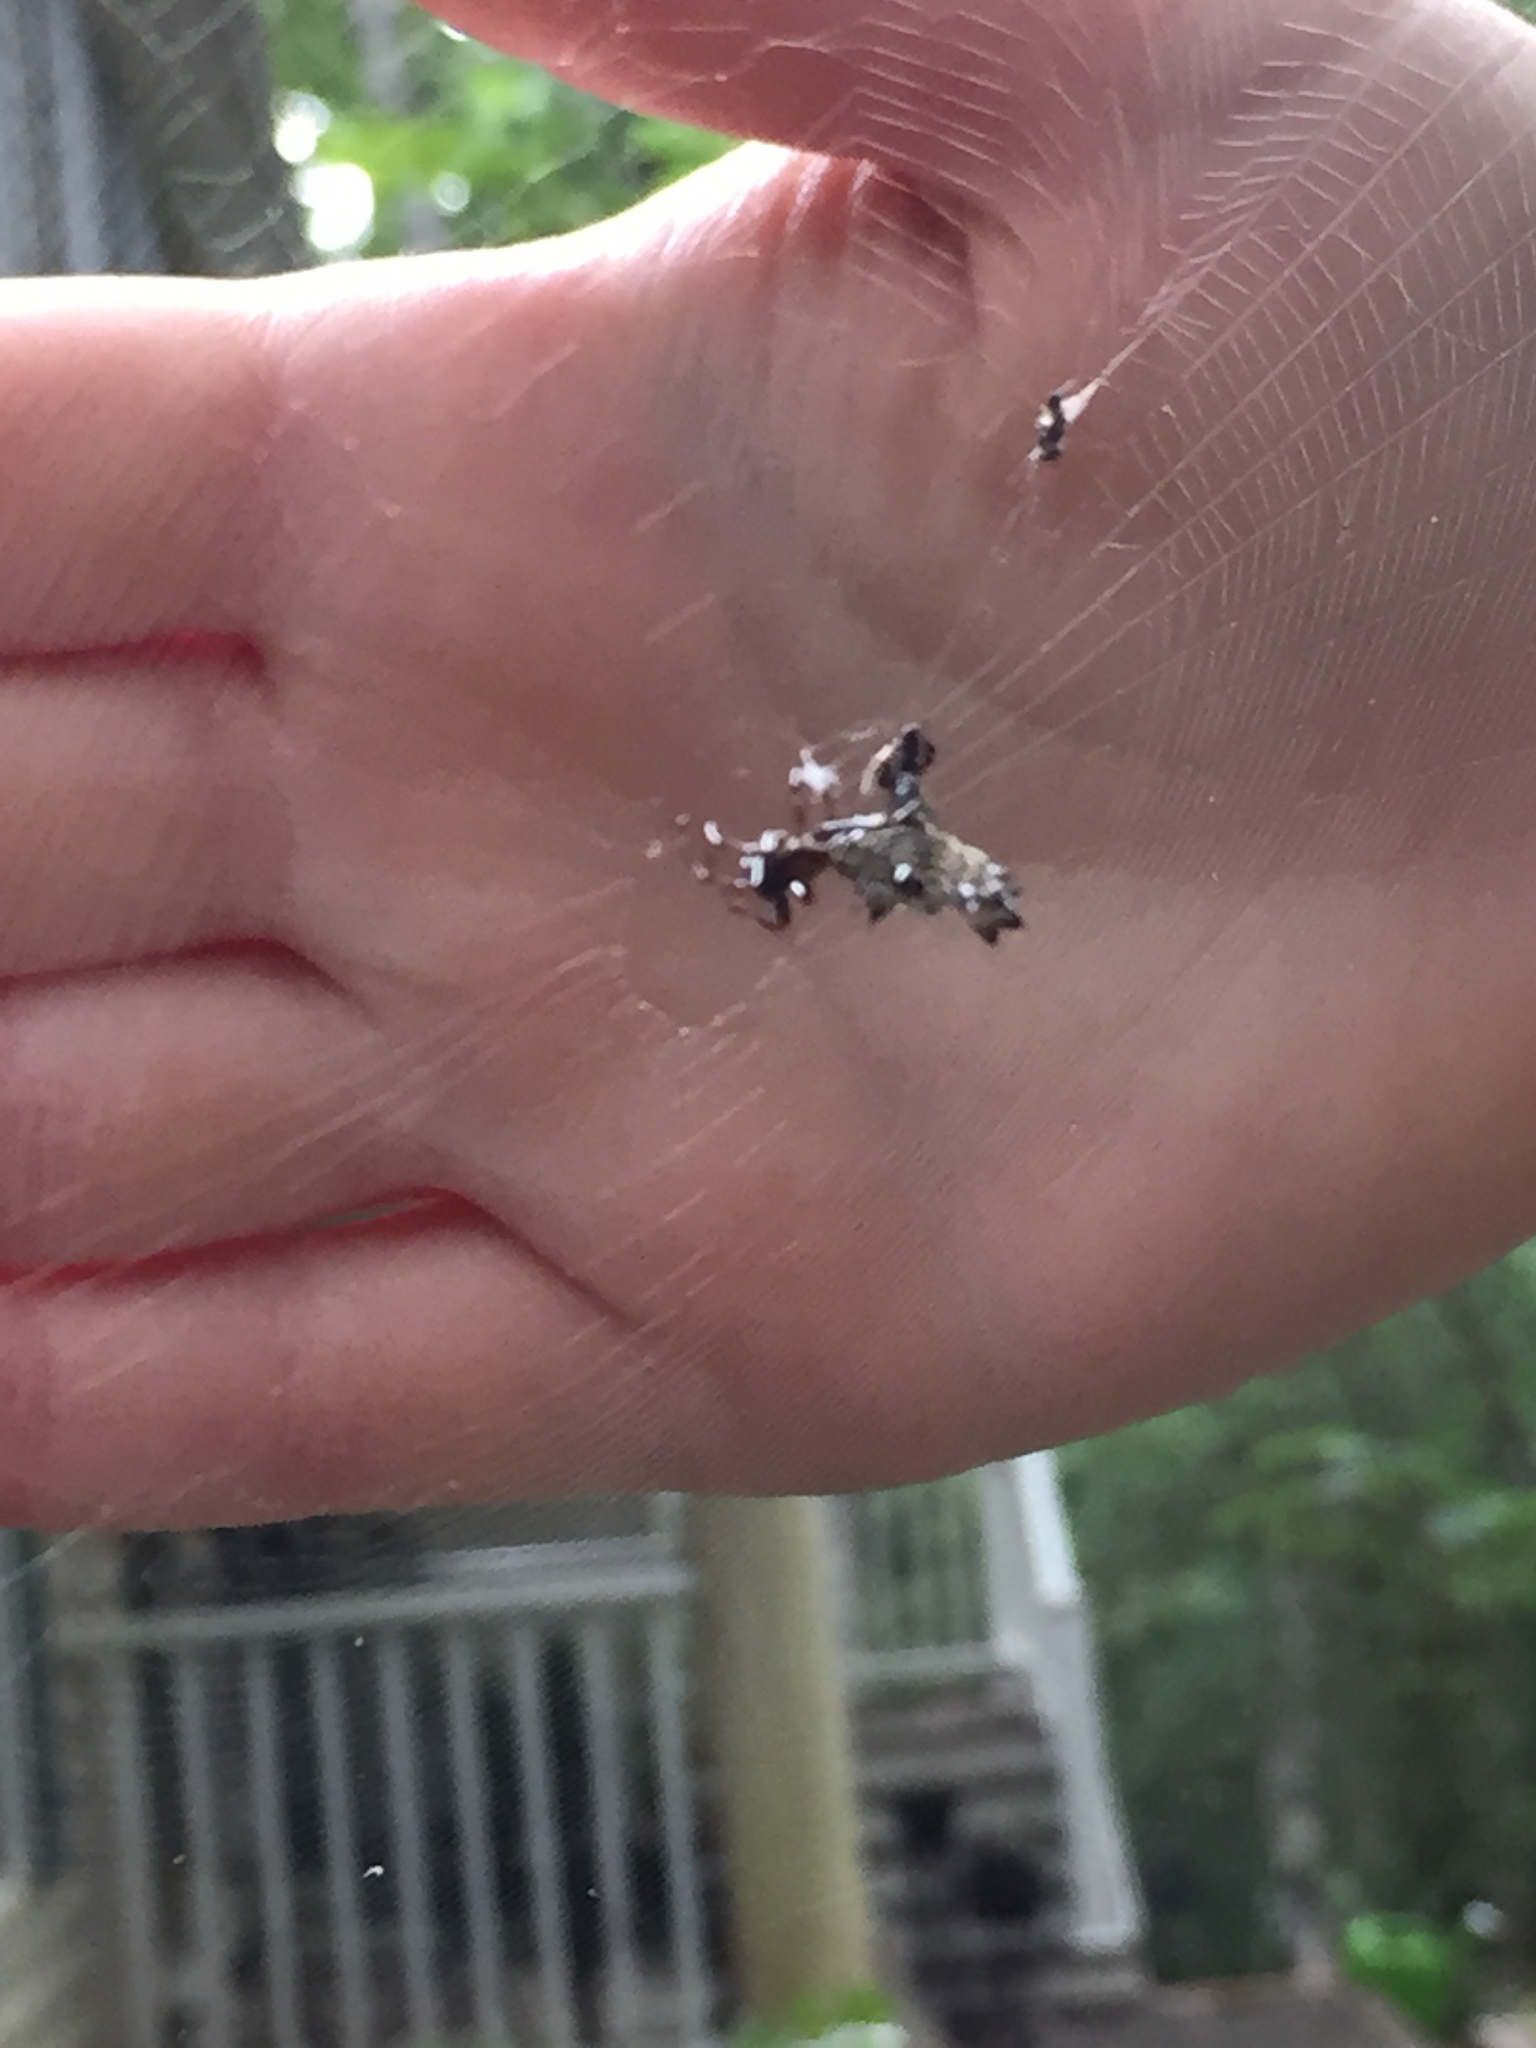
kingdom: Animalia
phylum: Arthropoda
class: Arachnida
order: Araneae
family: Araneidae
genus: Micrathena
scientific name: Micrathena gracilis
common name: Orb weavers
